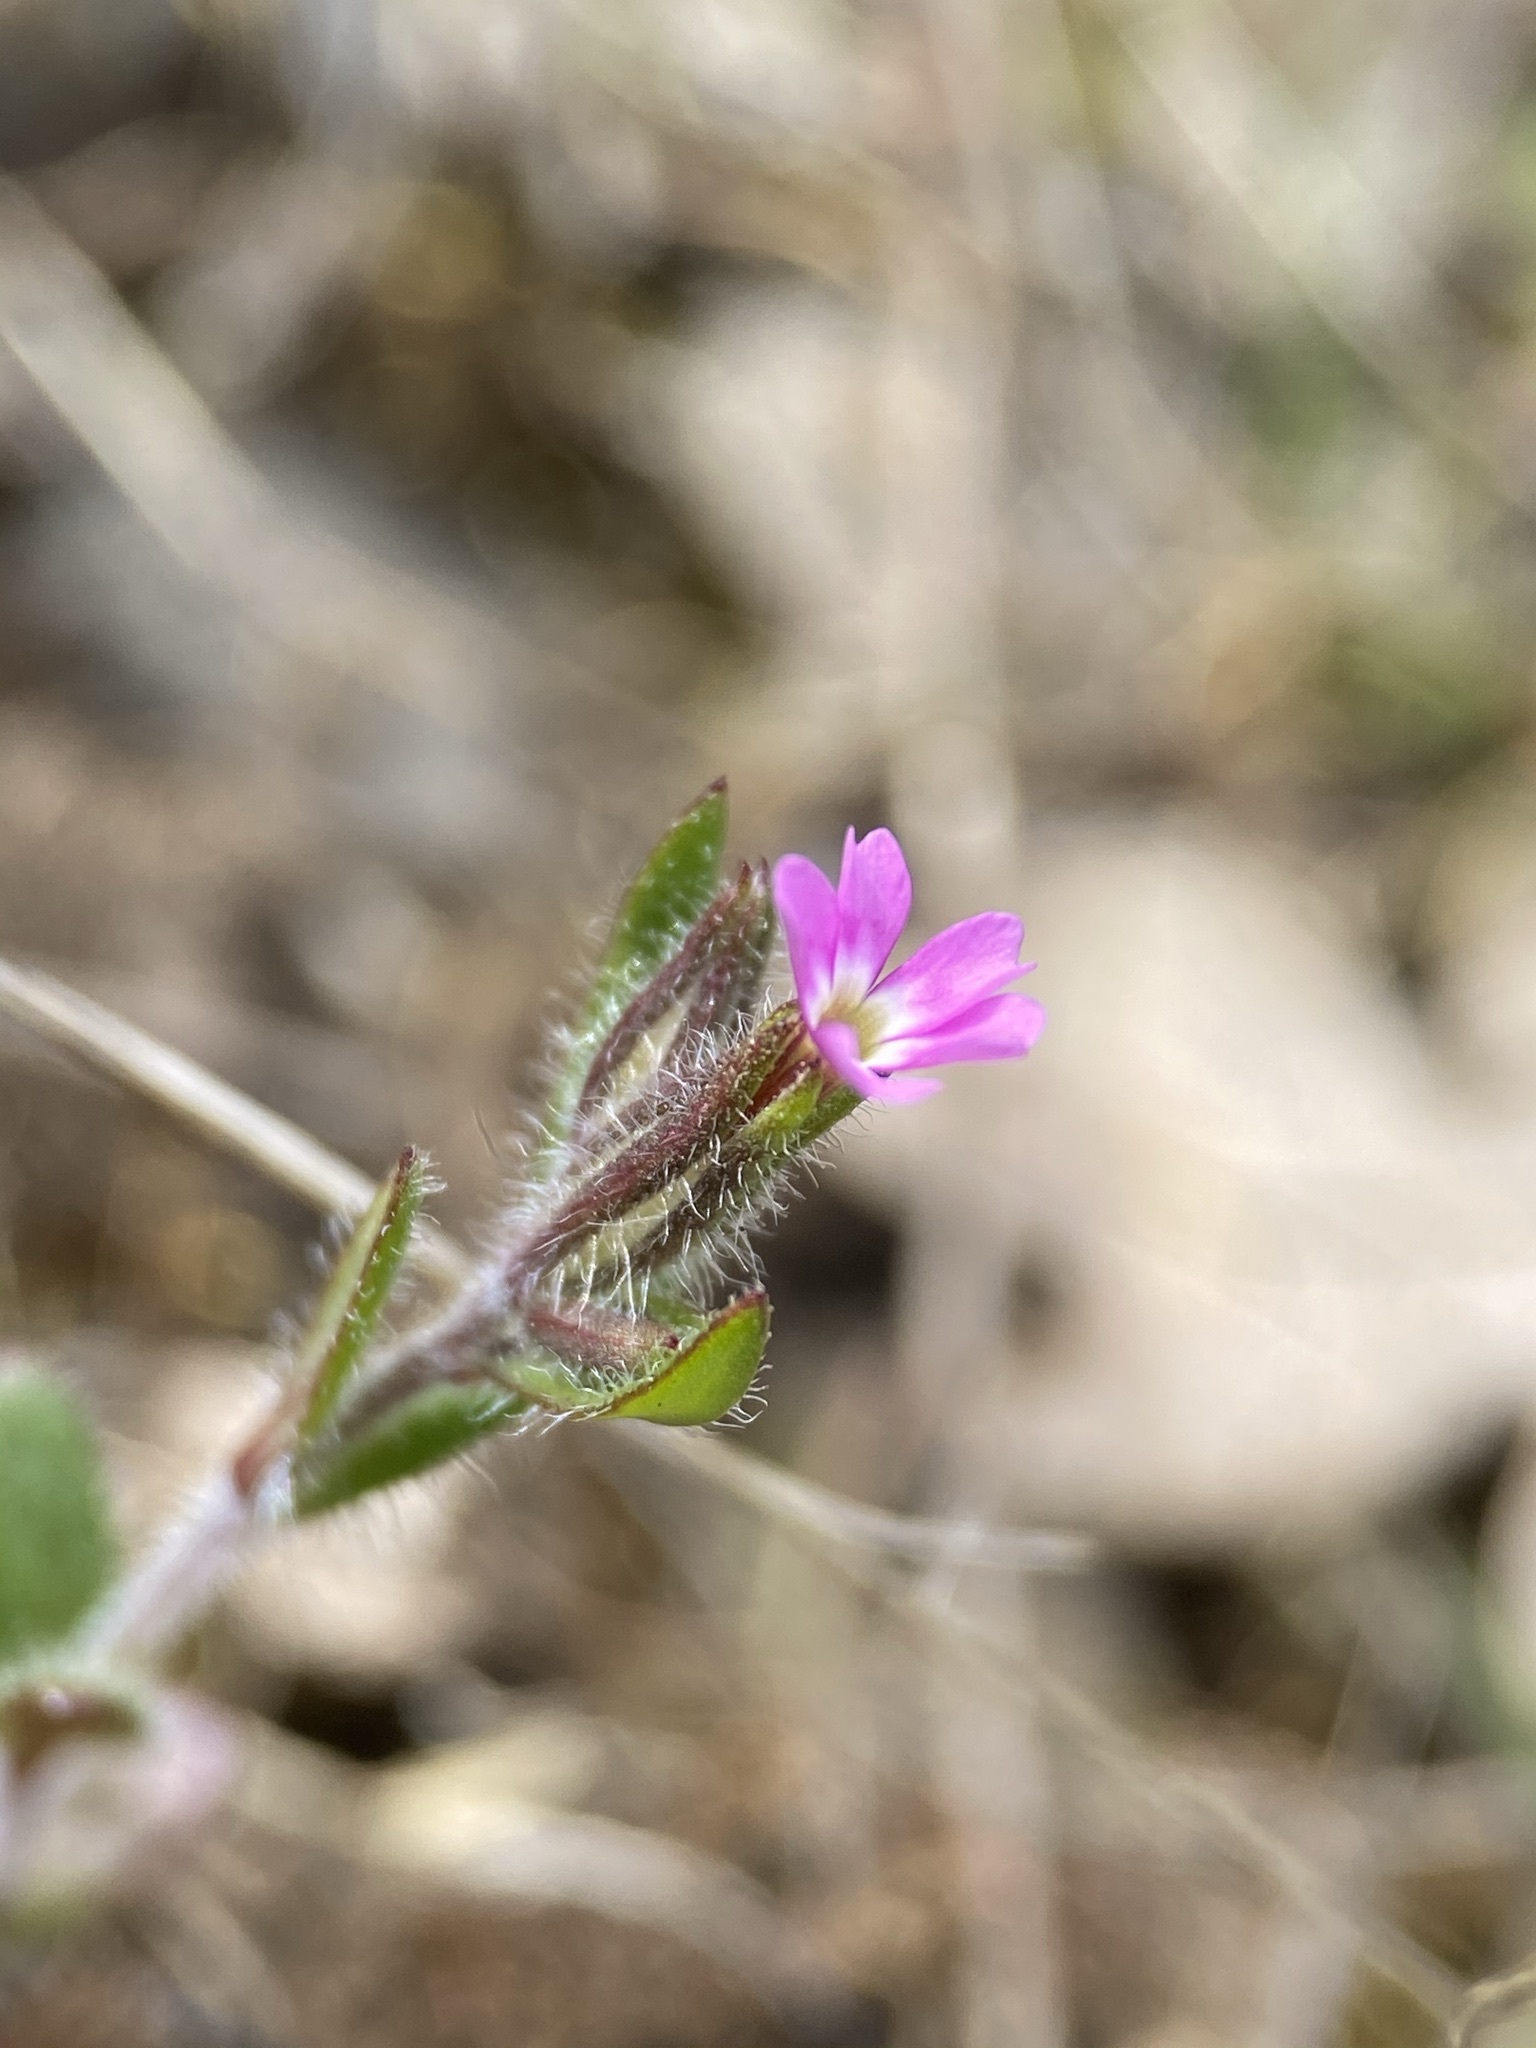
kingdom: Plantae
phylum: Tracheophyta
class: Magnoliopsida
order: Ericales
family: Polemoniaceae
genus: Phlox
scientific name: Phlox gracilis
